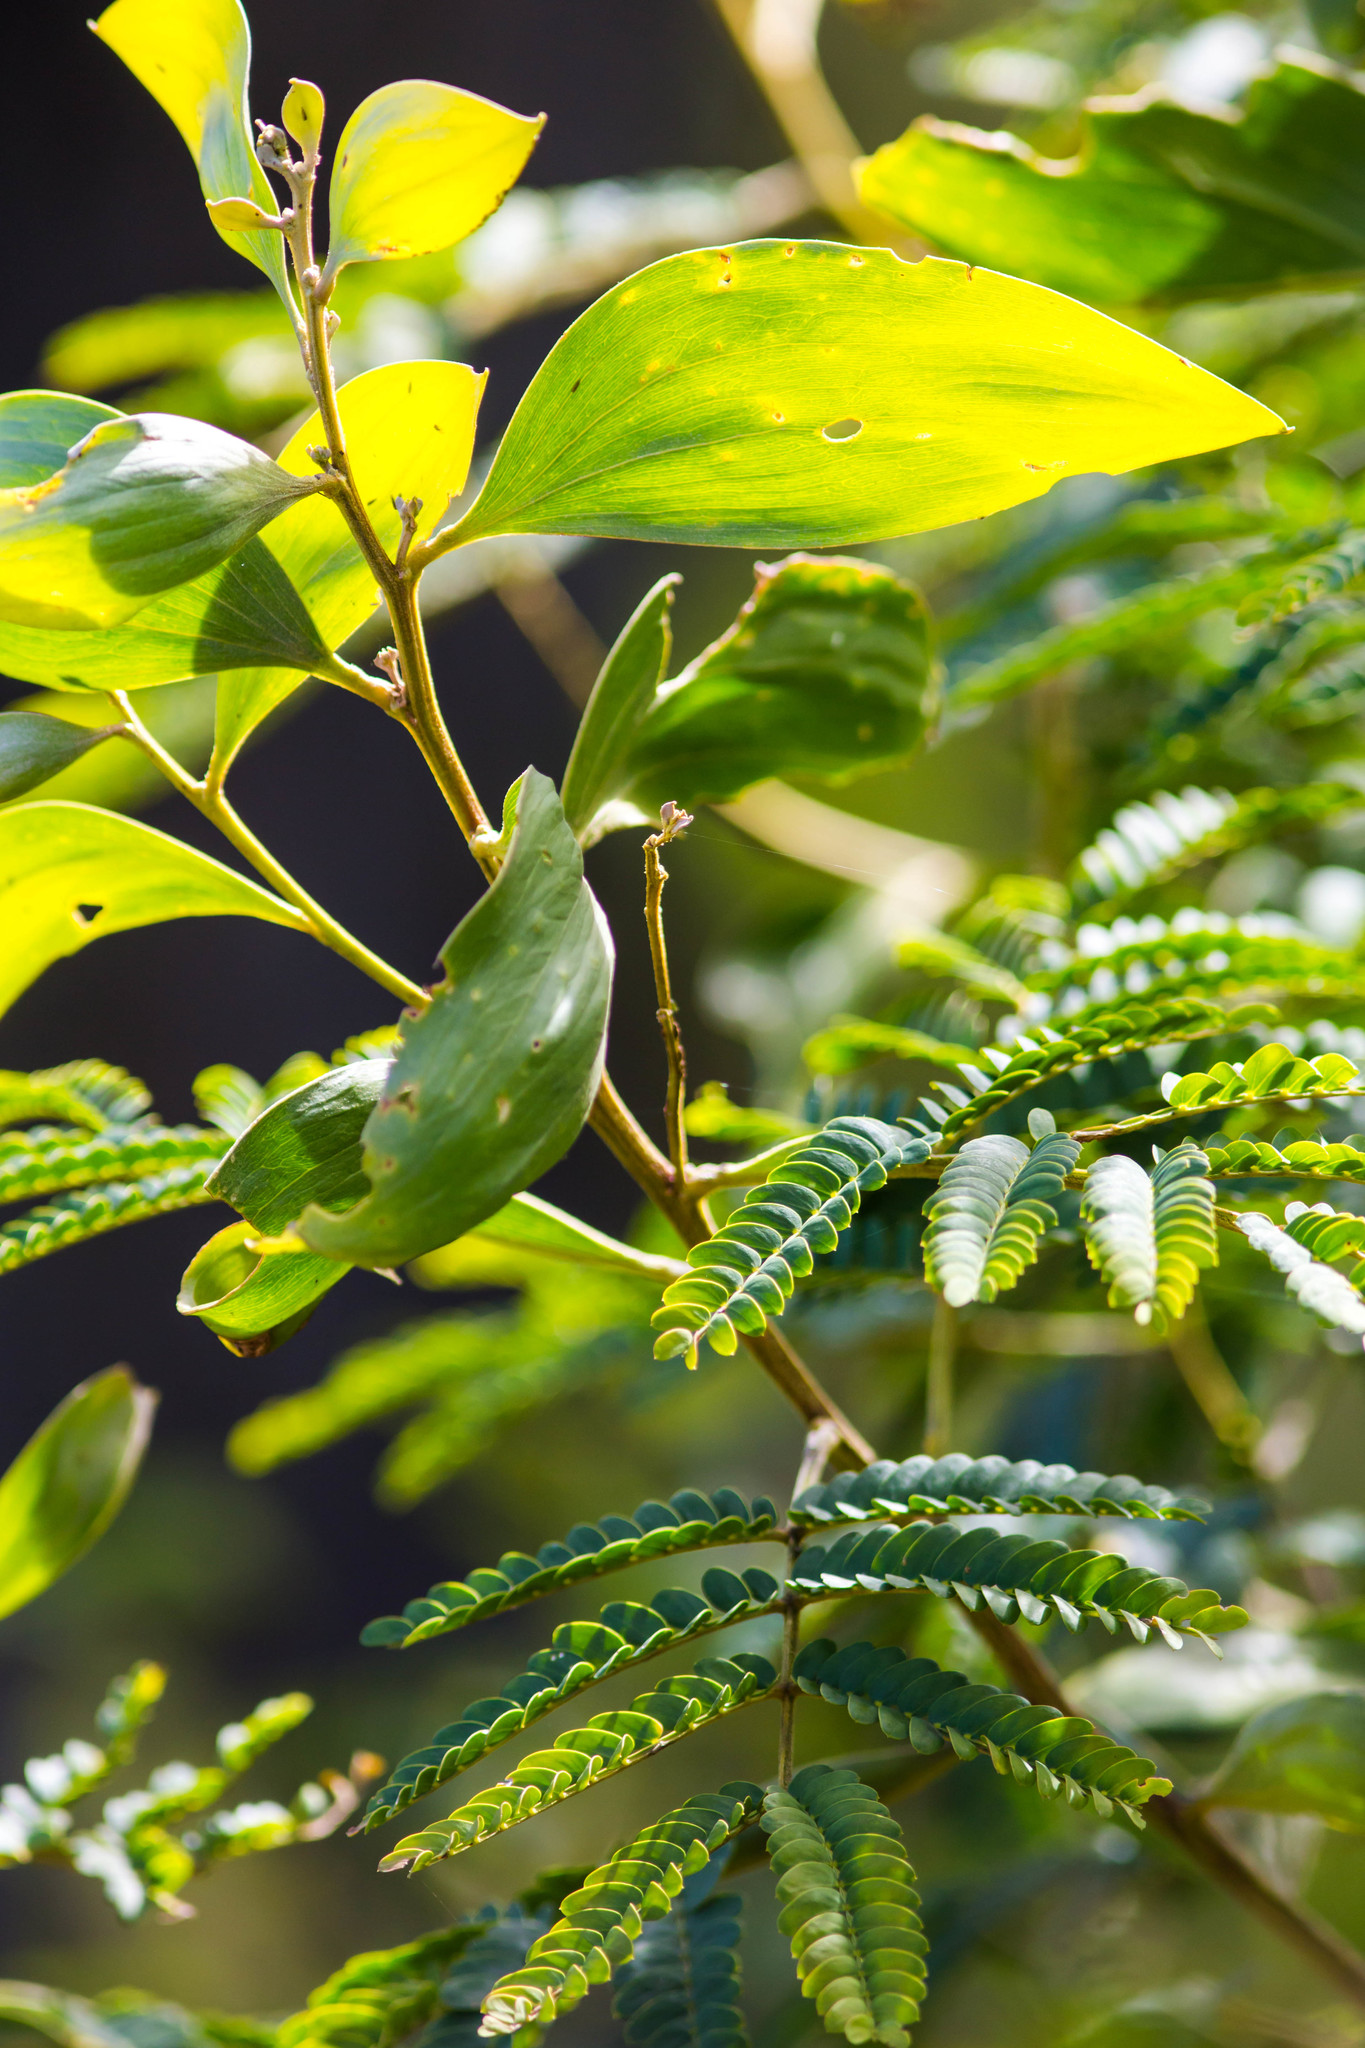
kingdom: Plantae
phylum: Tracheophyta
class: Magnoliopsida
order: Fabales
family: Fabaceae
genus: Acacia
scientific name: Acacia koa
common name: Gray koa
